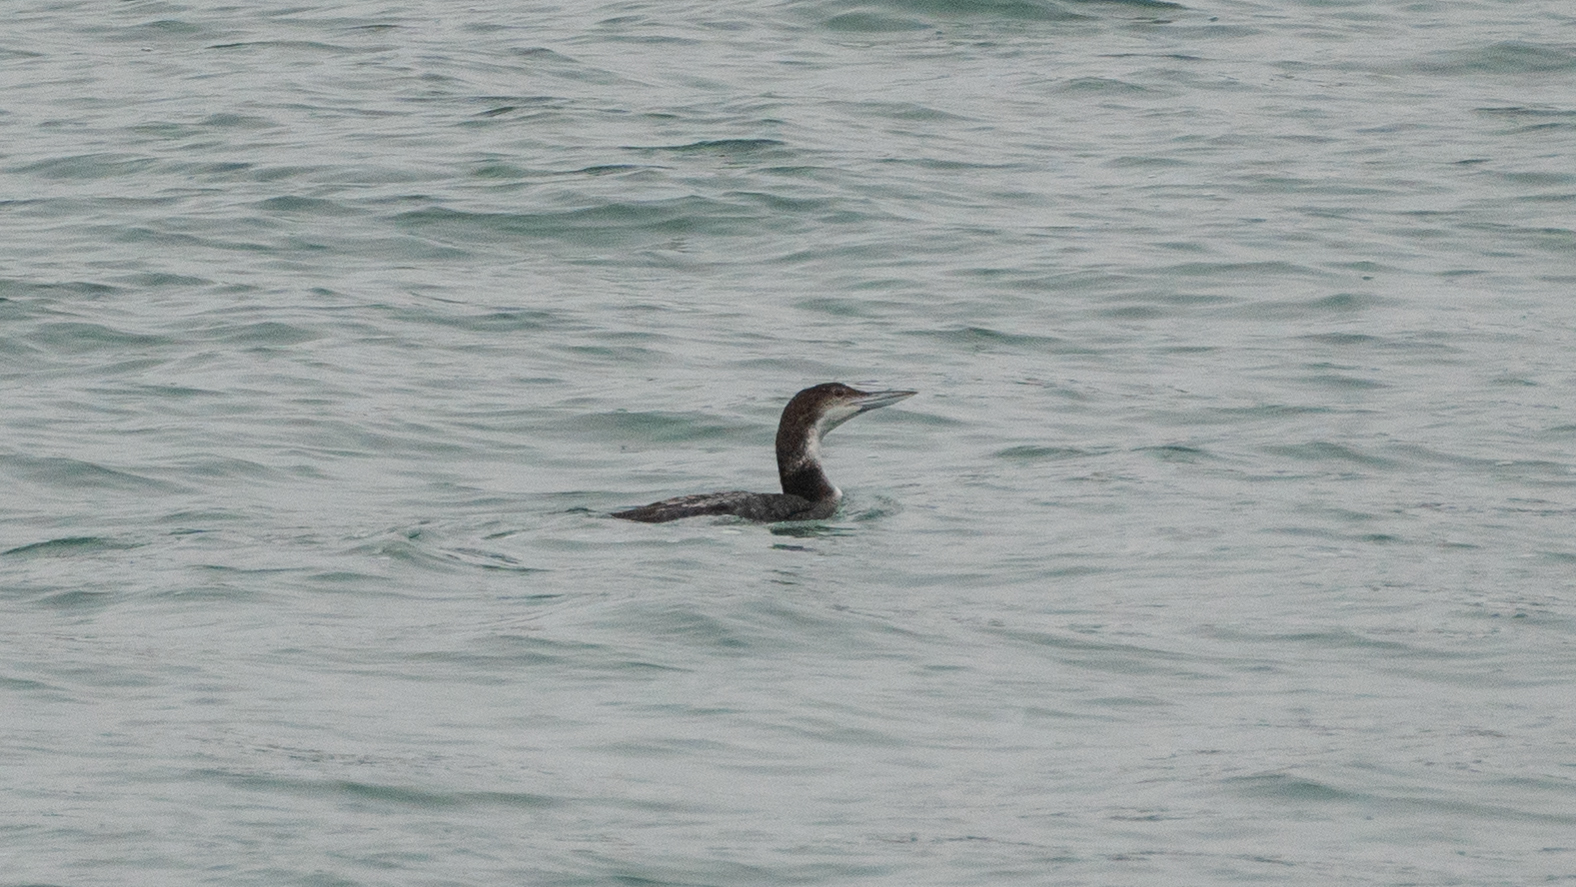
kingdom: Animalia
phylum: Chordata
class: Aves
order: Gaviiformes
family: Gaviidae
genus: Gavia
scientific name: Gavia immer
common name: Common loon
